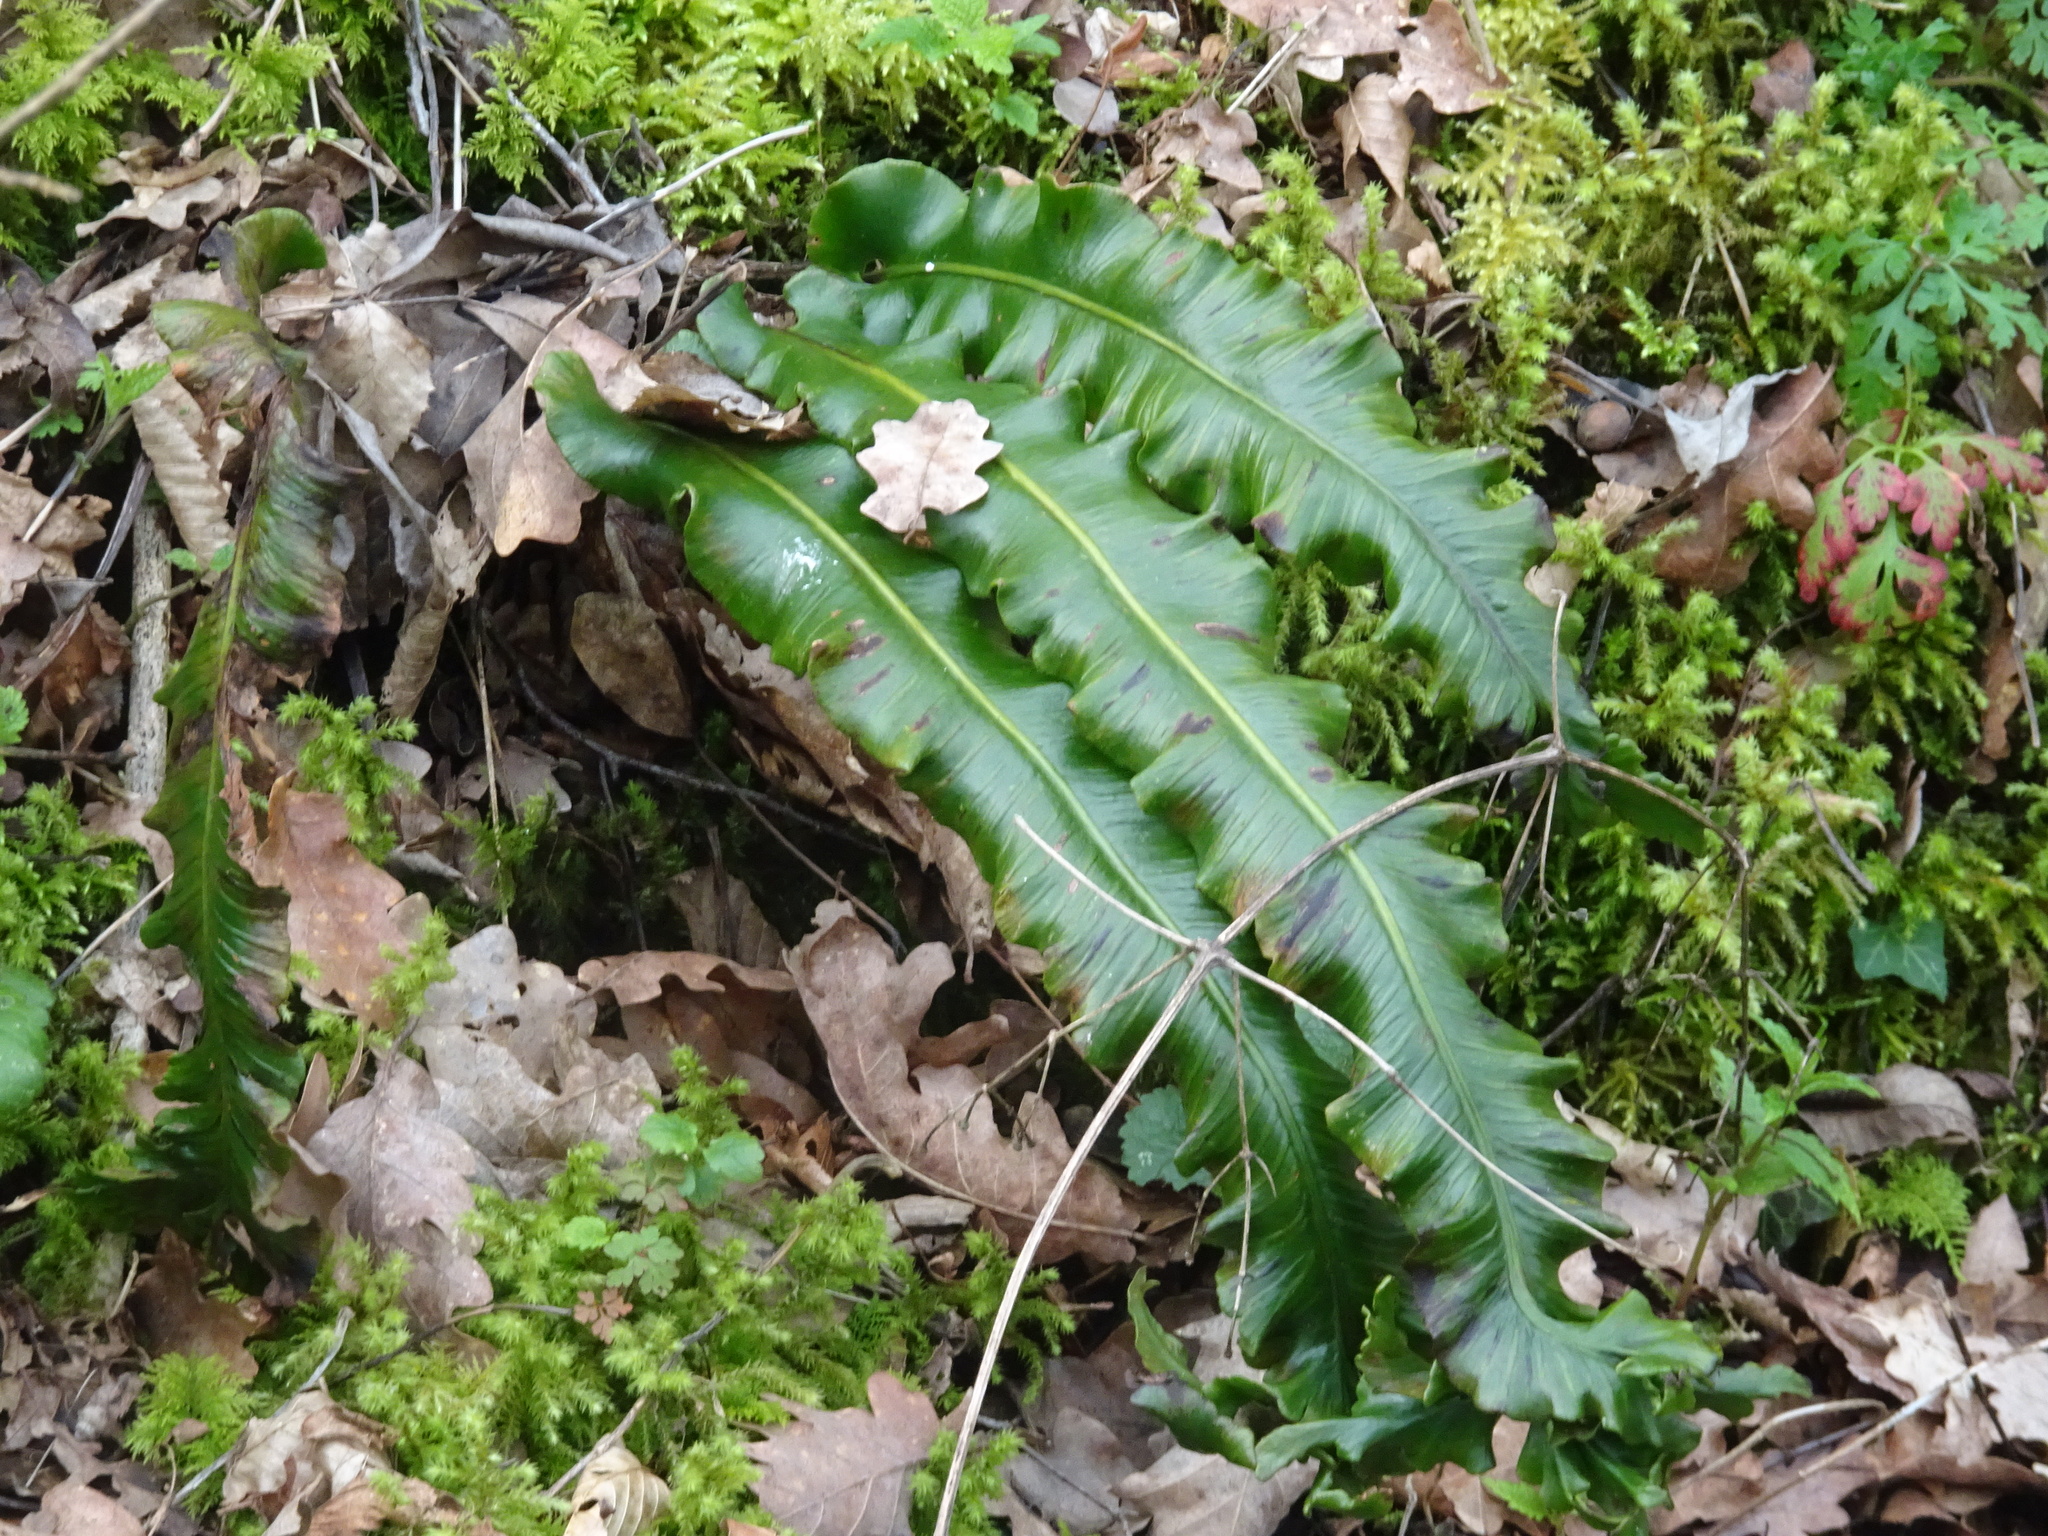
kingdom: Plantae
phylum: Tracheophyta
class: Polypodiopsida
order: Polypodiales
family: Aspleniaceae
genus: Asplenium
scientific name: Asplenium scolopendrium
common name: Hart's-tongue fern
